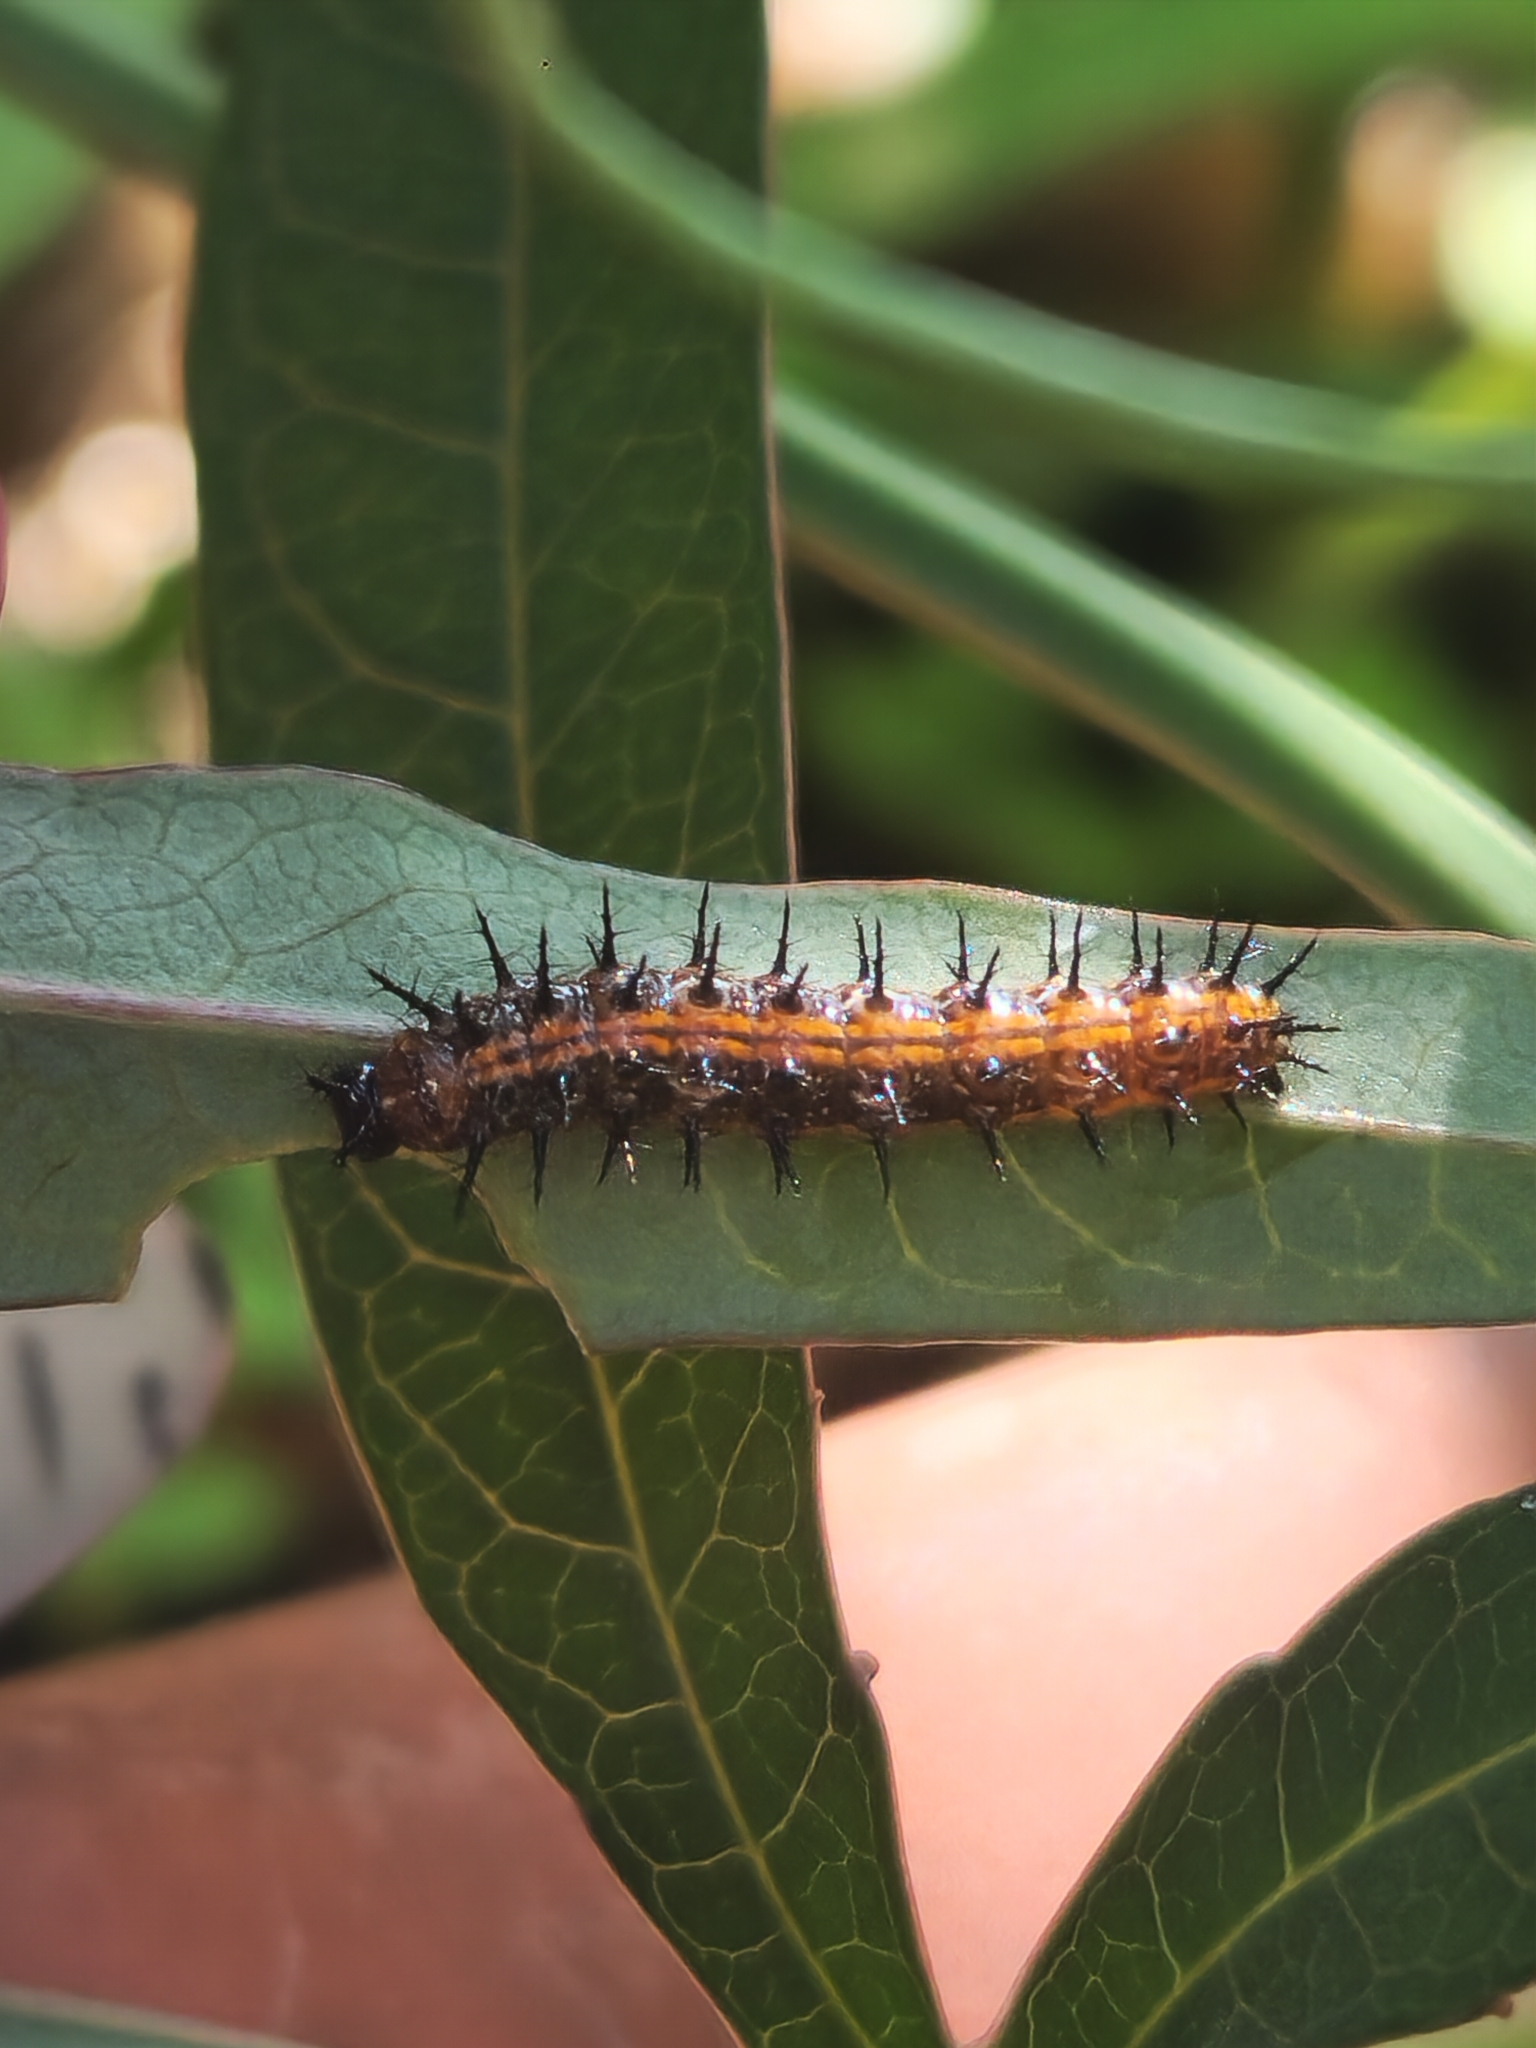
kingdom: Animalia
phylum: Arthropoda
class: Insecta
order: Lepidoptera
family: Nymphalidae
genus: Dione
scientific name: Dione vanillae
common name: Gulf fritillary
